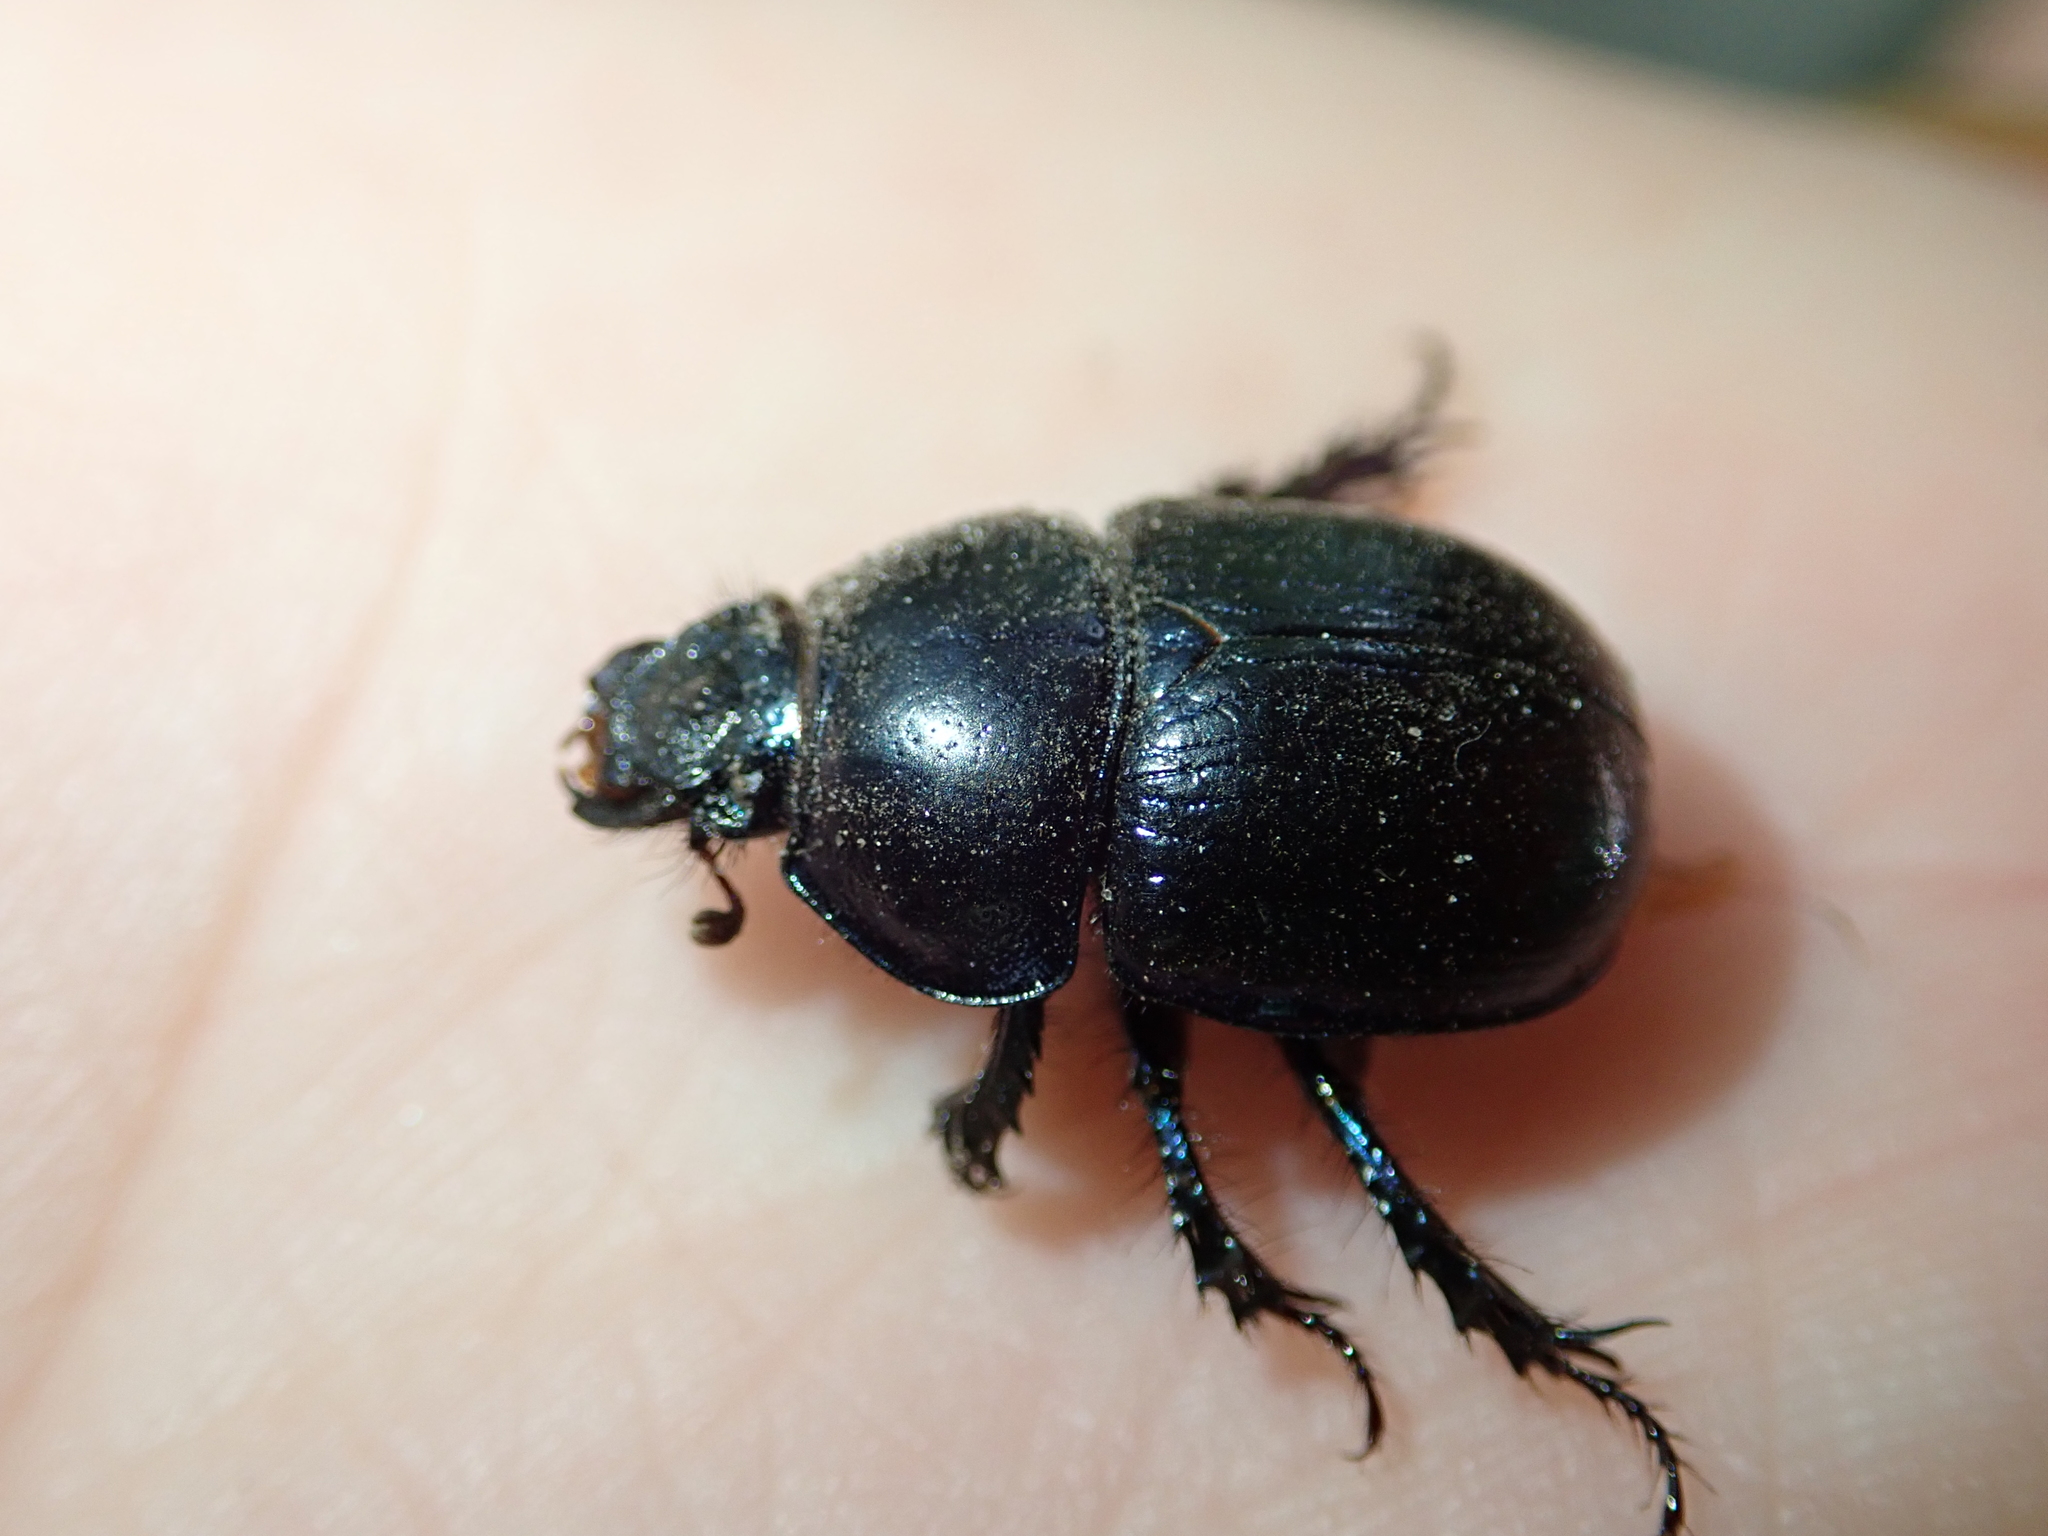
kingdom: Animalia
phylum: Arthropoda
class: Insecta
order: Coleoptera
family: Geotrupidae
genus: Anoplotrupes
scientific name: Anoplotrupes stercorosus
